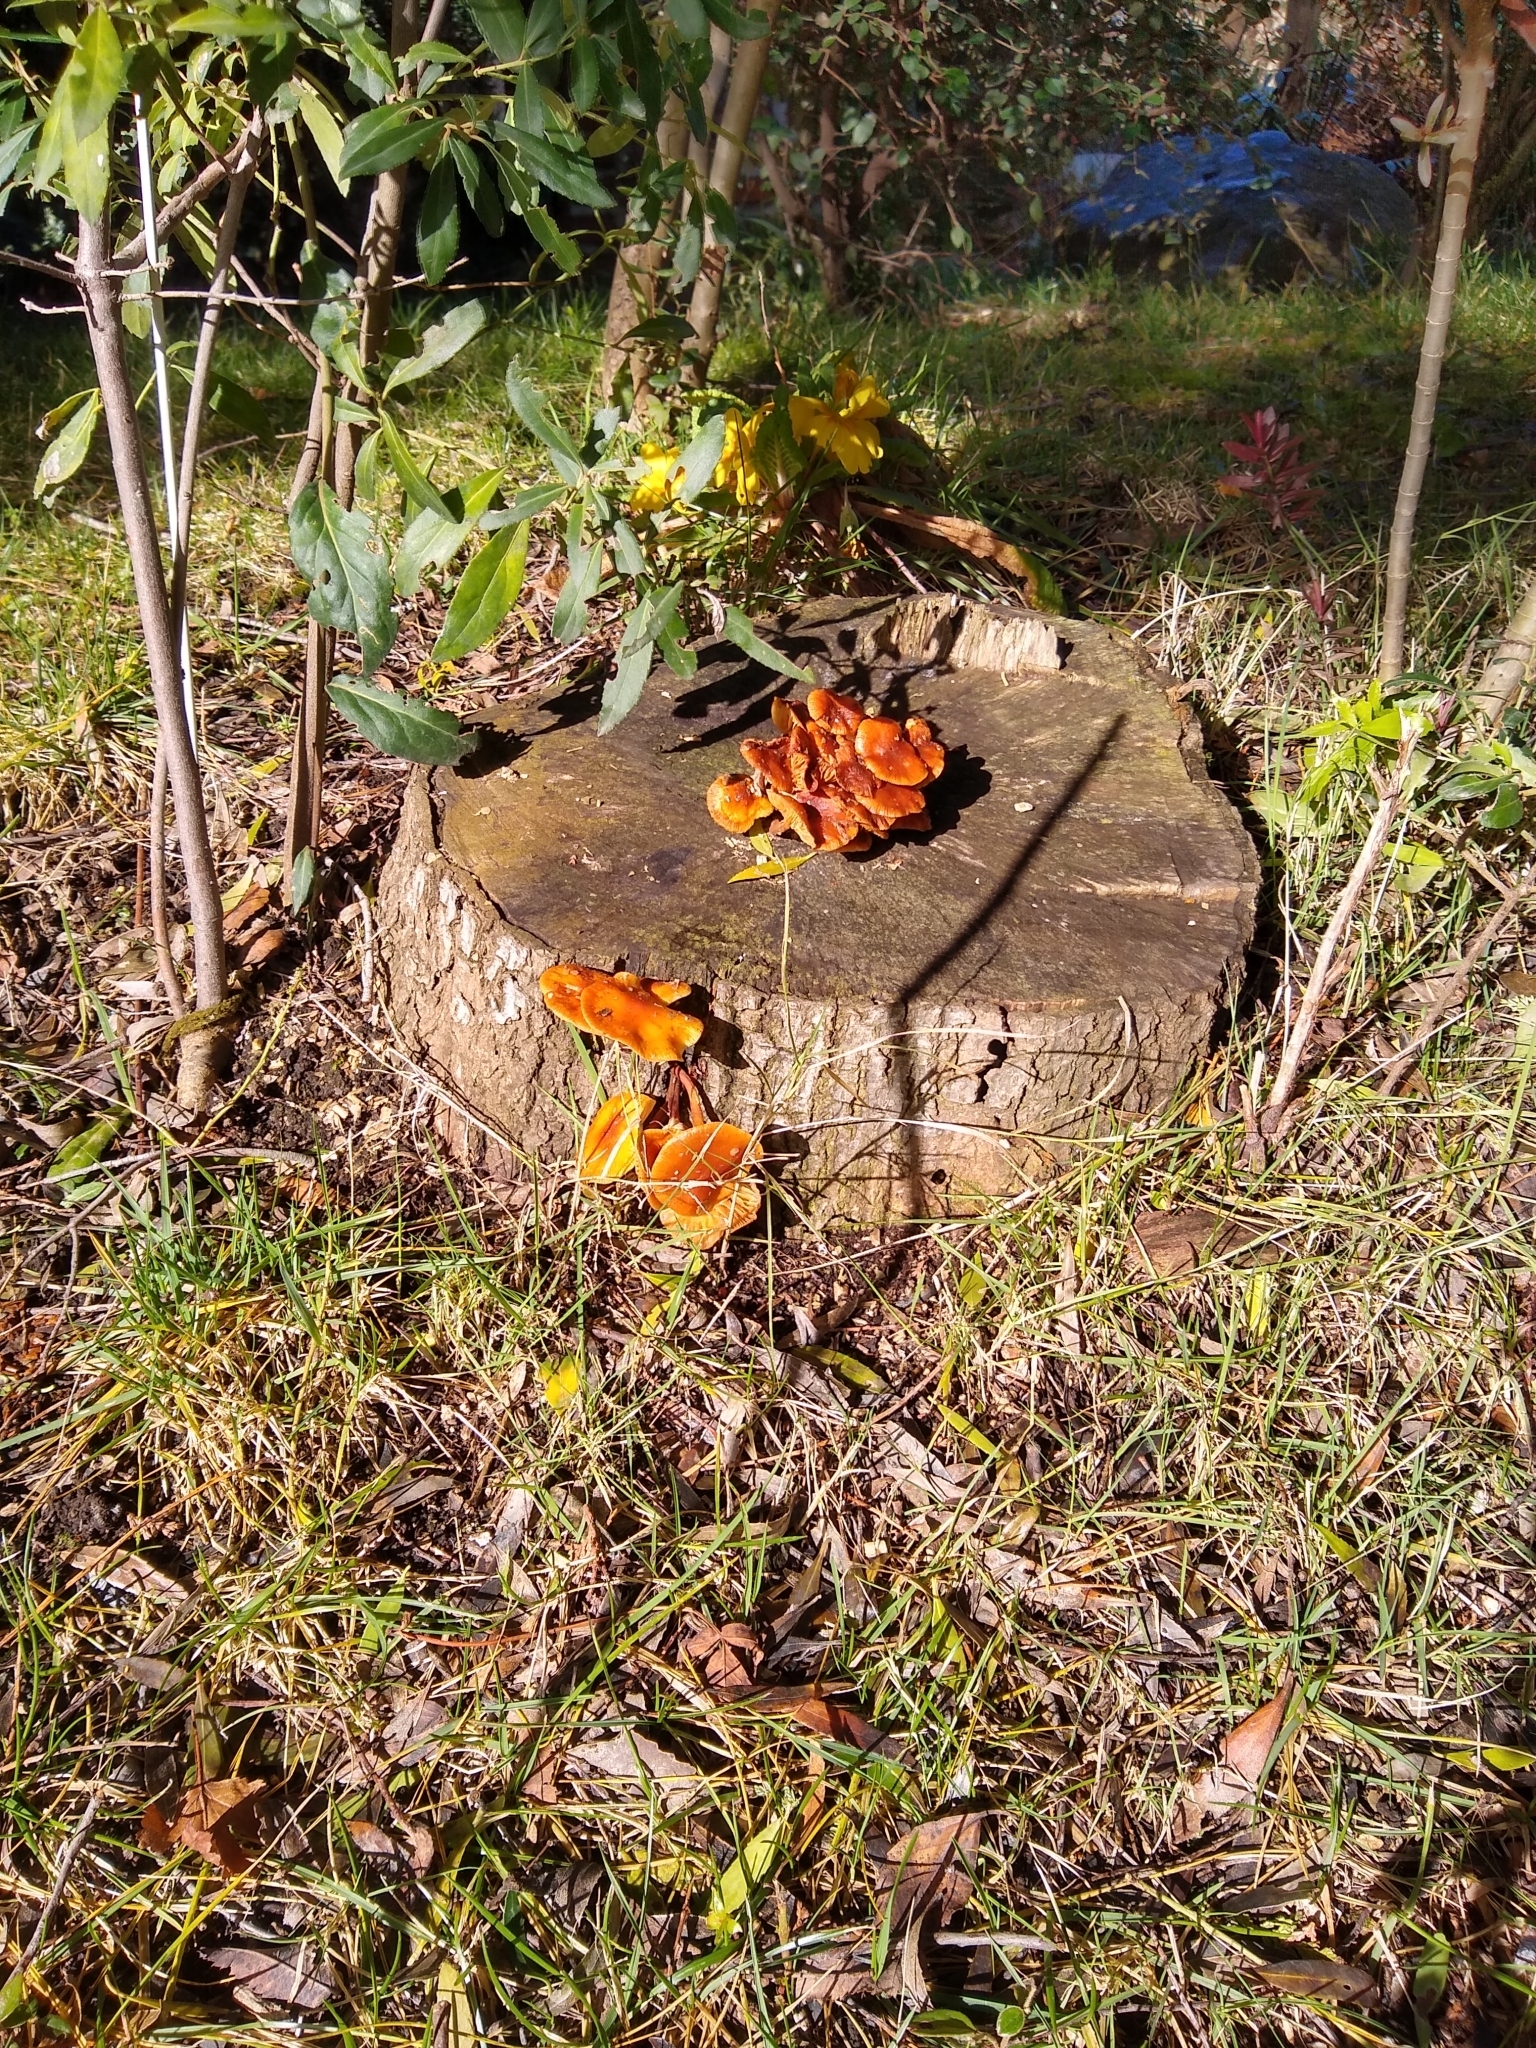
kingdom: Fungi
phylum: Basidiomycota
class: Agaricomycetes
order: Agaricales
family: Physalacriaceae
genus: Flammulina
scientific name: Flammulina velutipes
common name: Velvet shank
